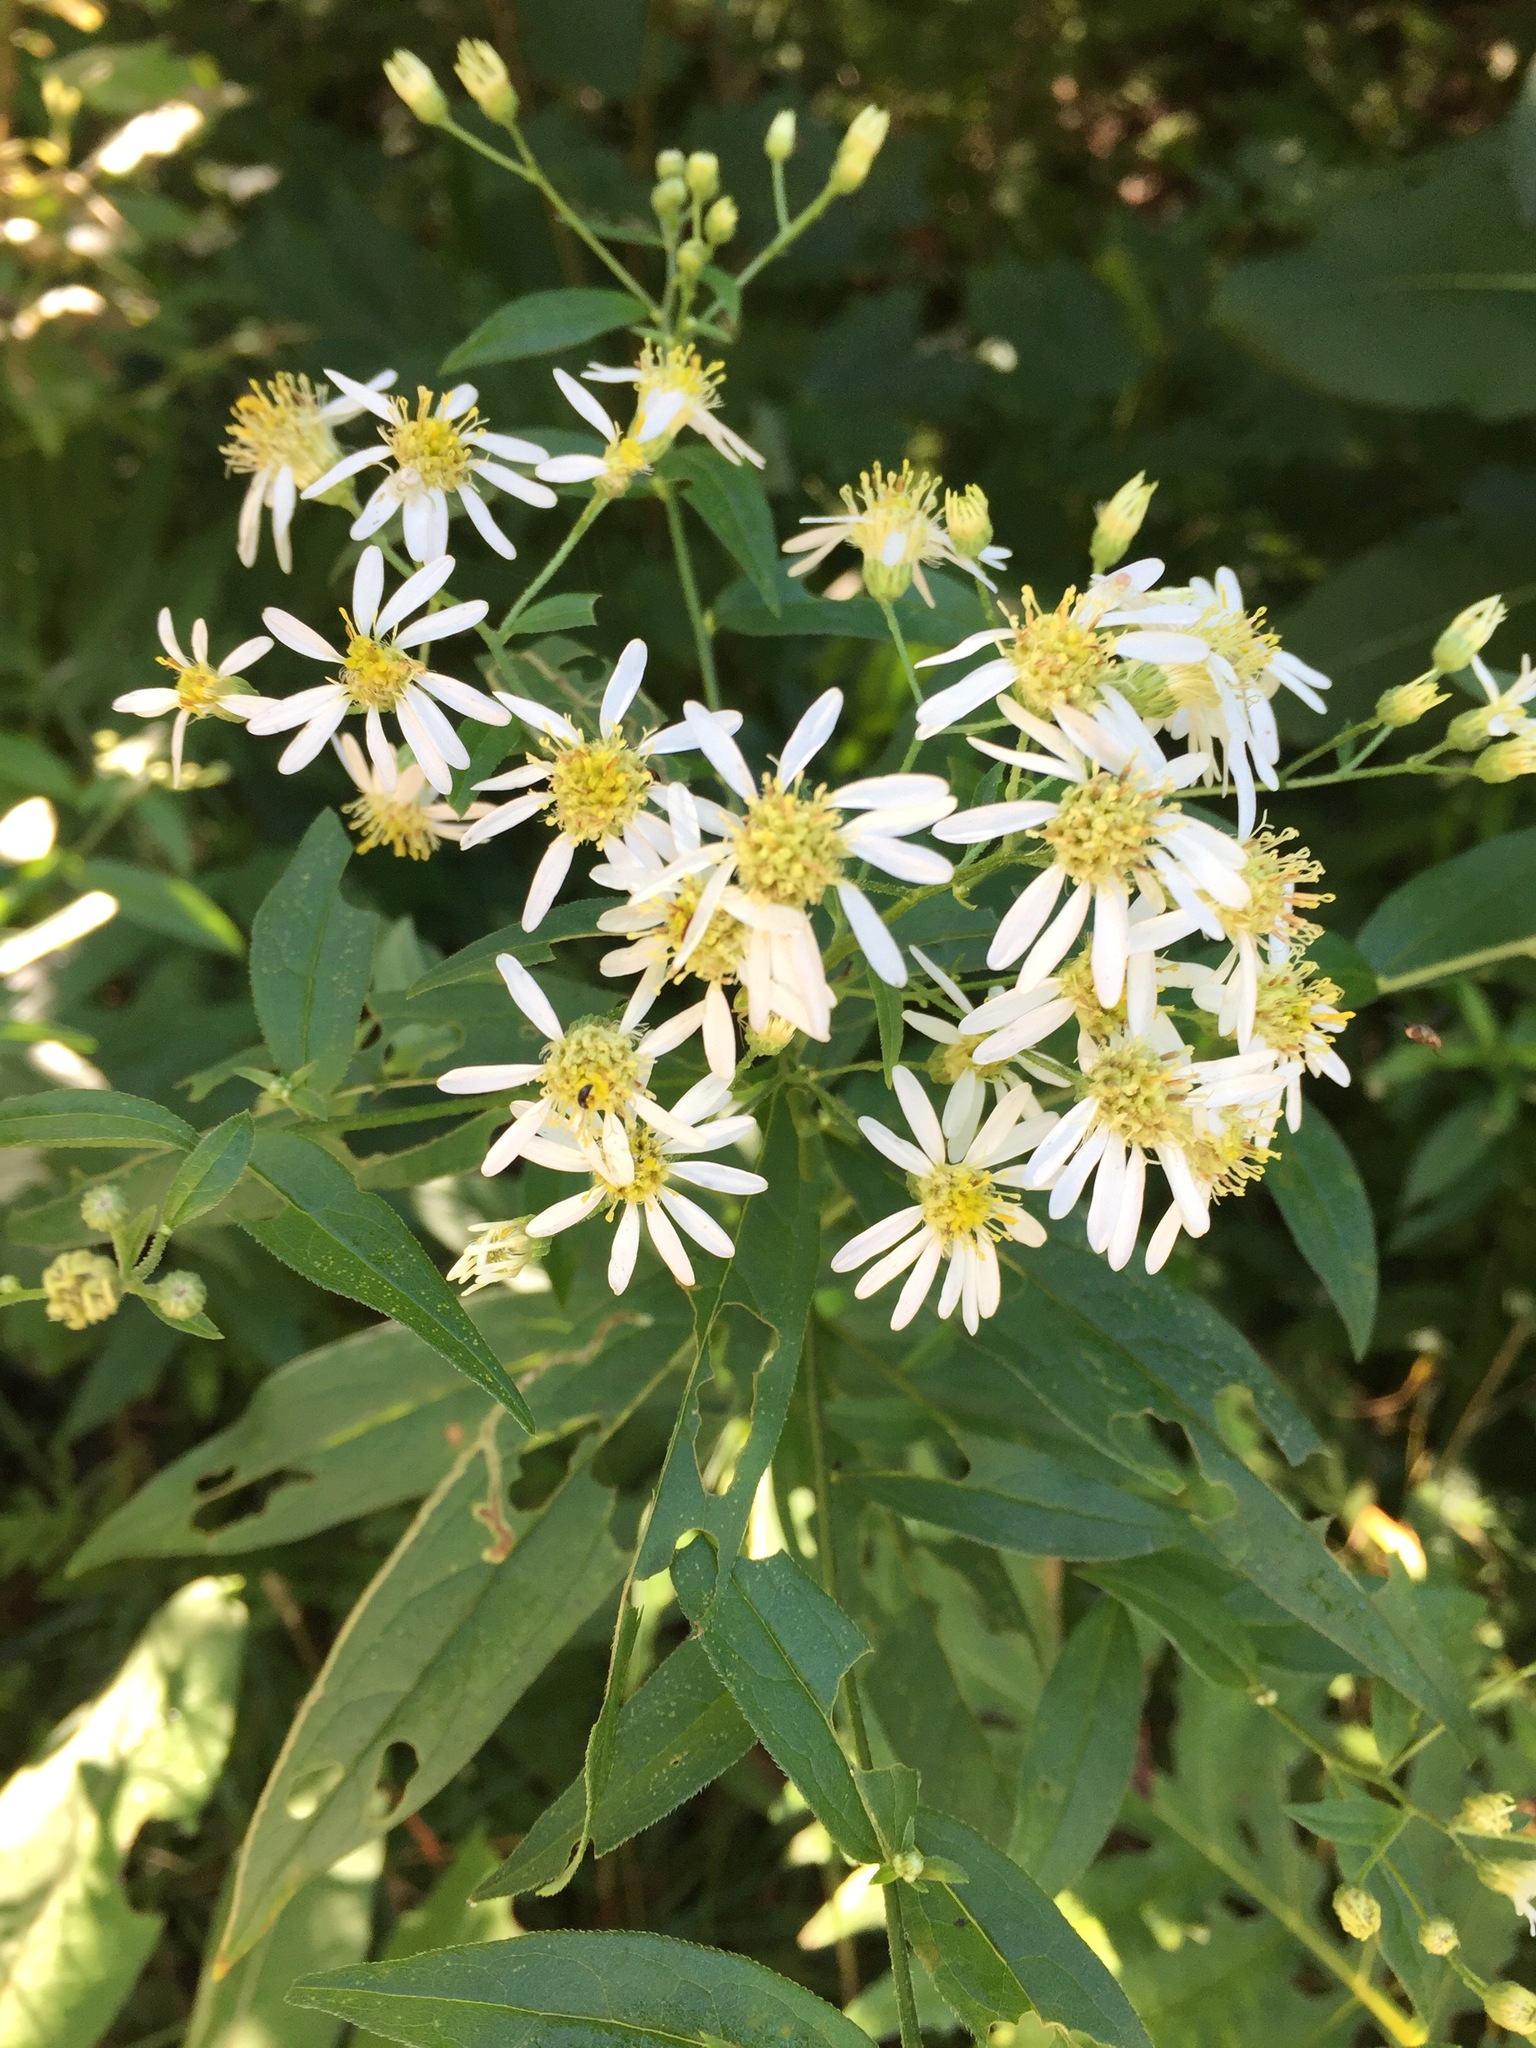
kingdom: Plantae
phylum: Tracheophyta
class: Magnoliopsida
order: Asterales
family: Asteraceae
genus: Doellingeria
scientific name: Doellingeria umbellata
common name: Flat-top white aster
